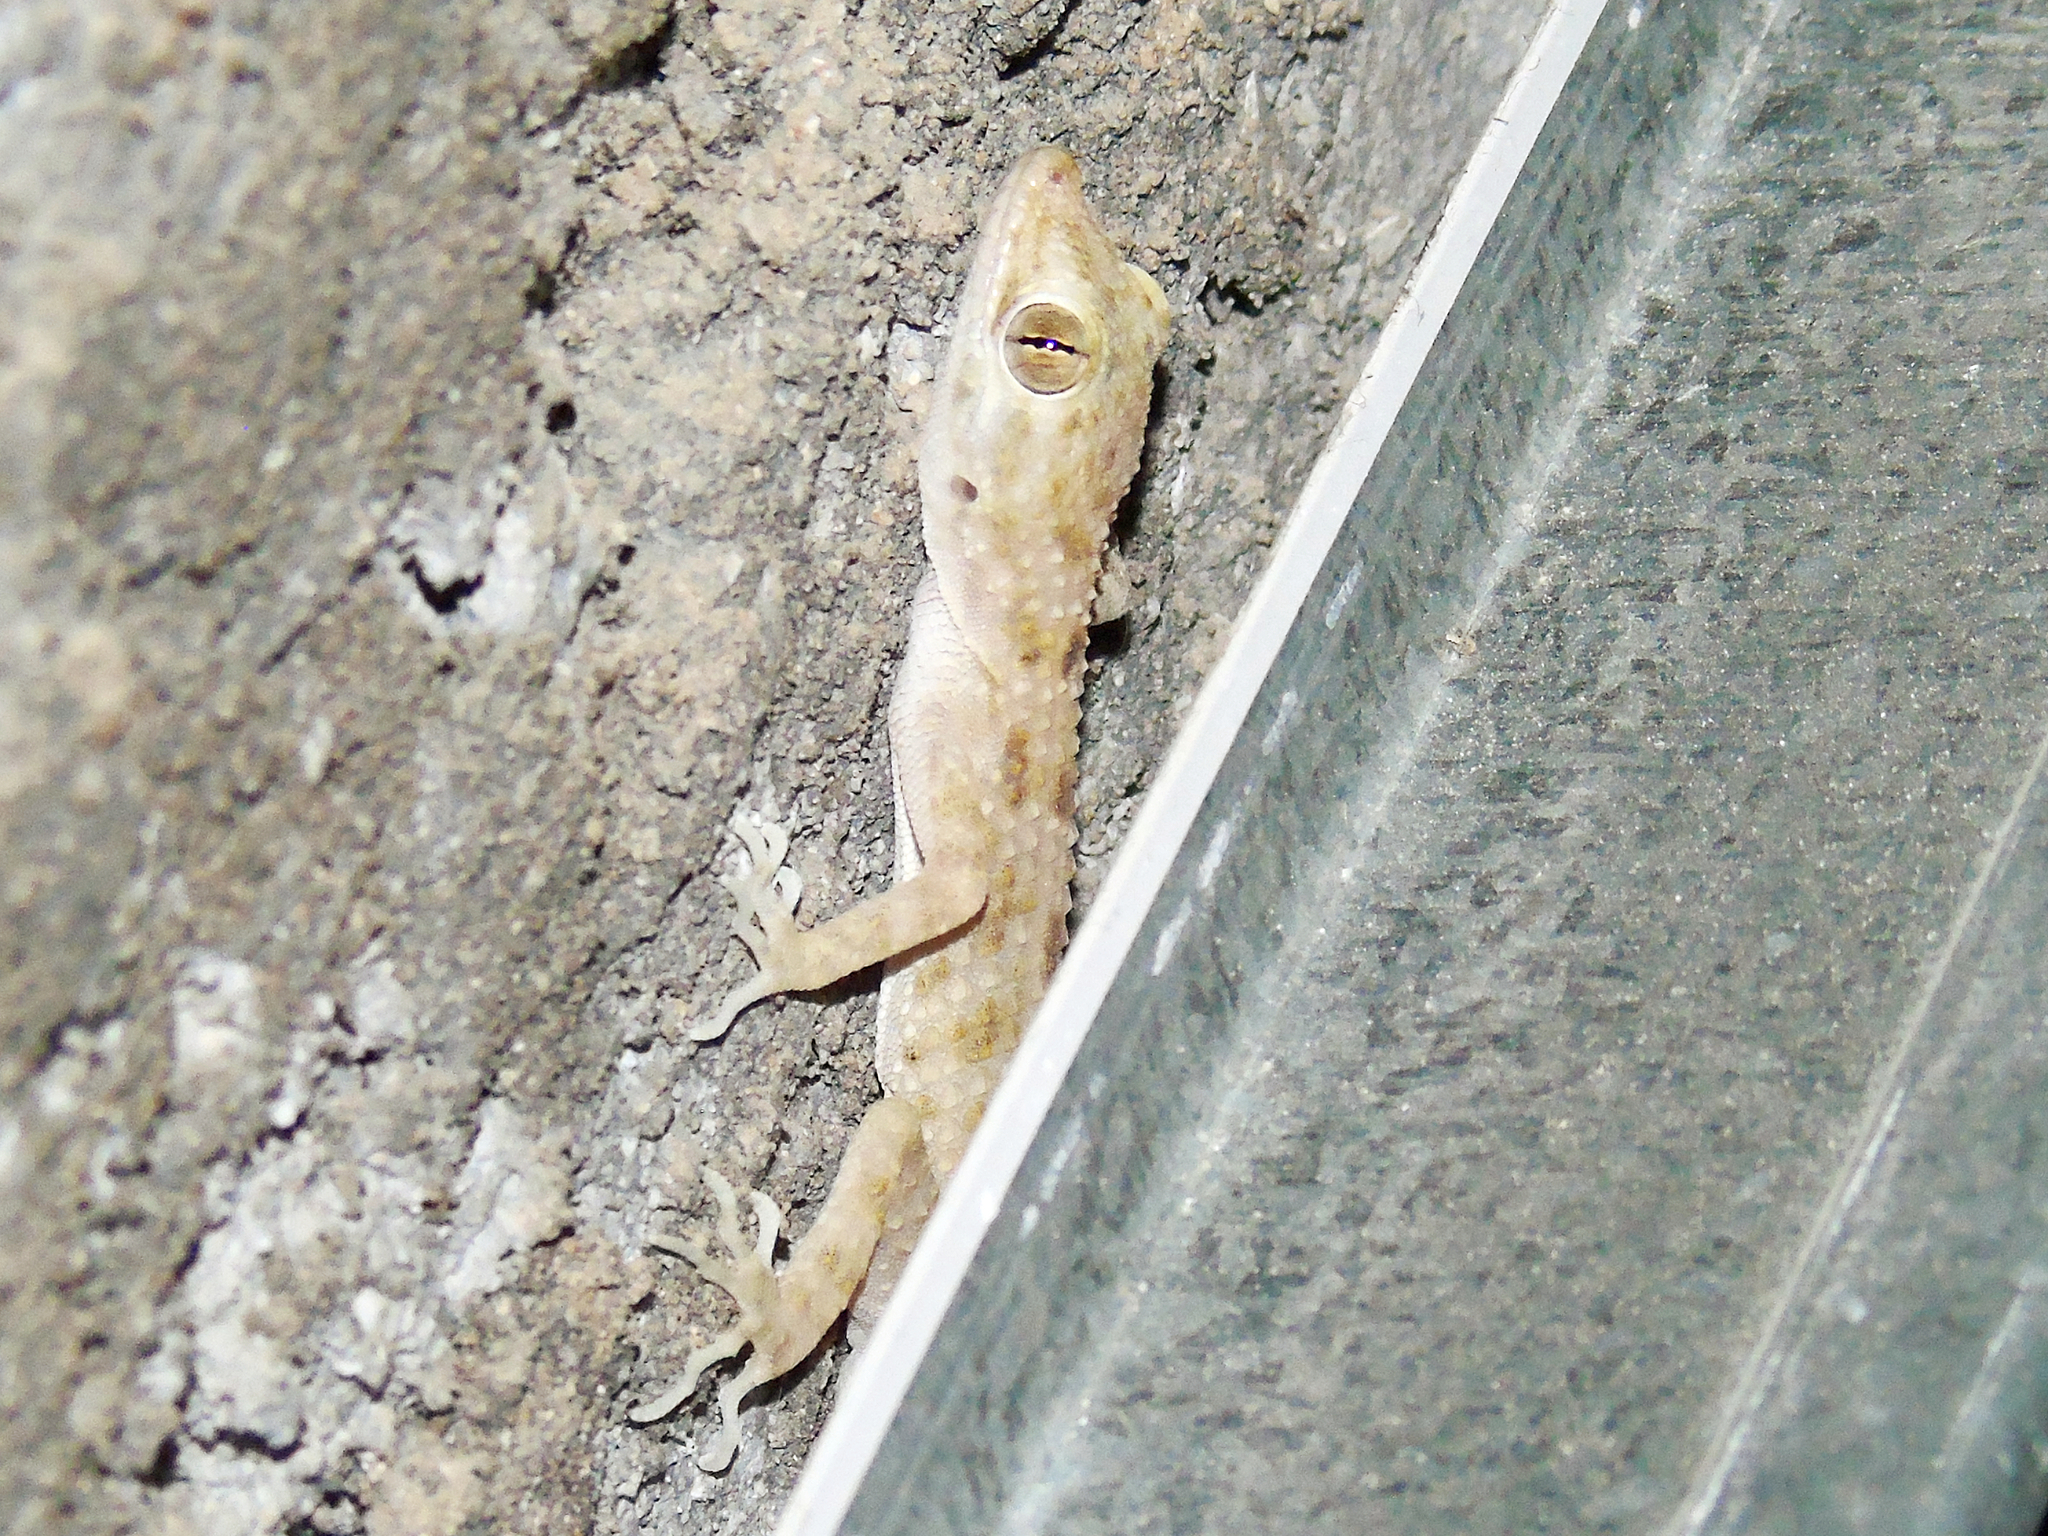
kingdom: Animalia
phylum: Chordata
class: Squamata
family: Gekkonidae
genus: Cyrtopodion
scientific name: Cyrtopodion scabrum
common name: Rough-tailed gecko
